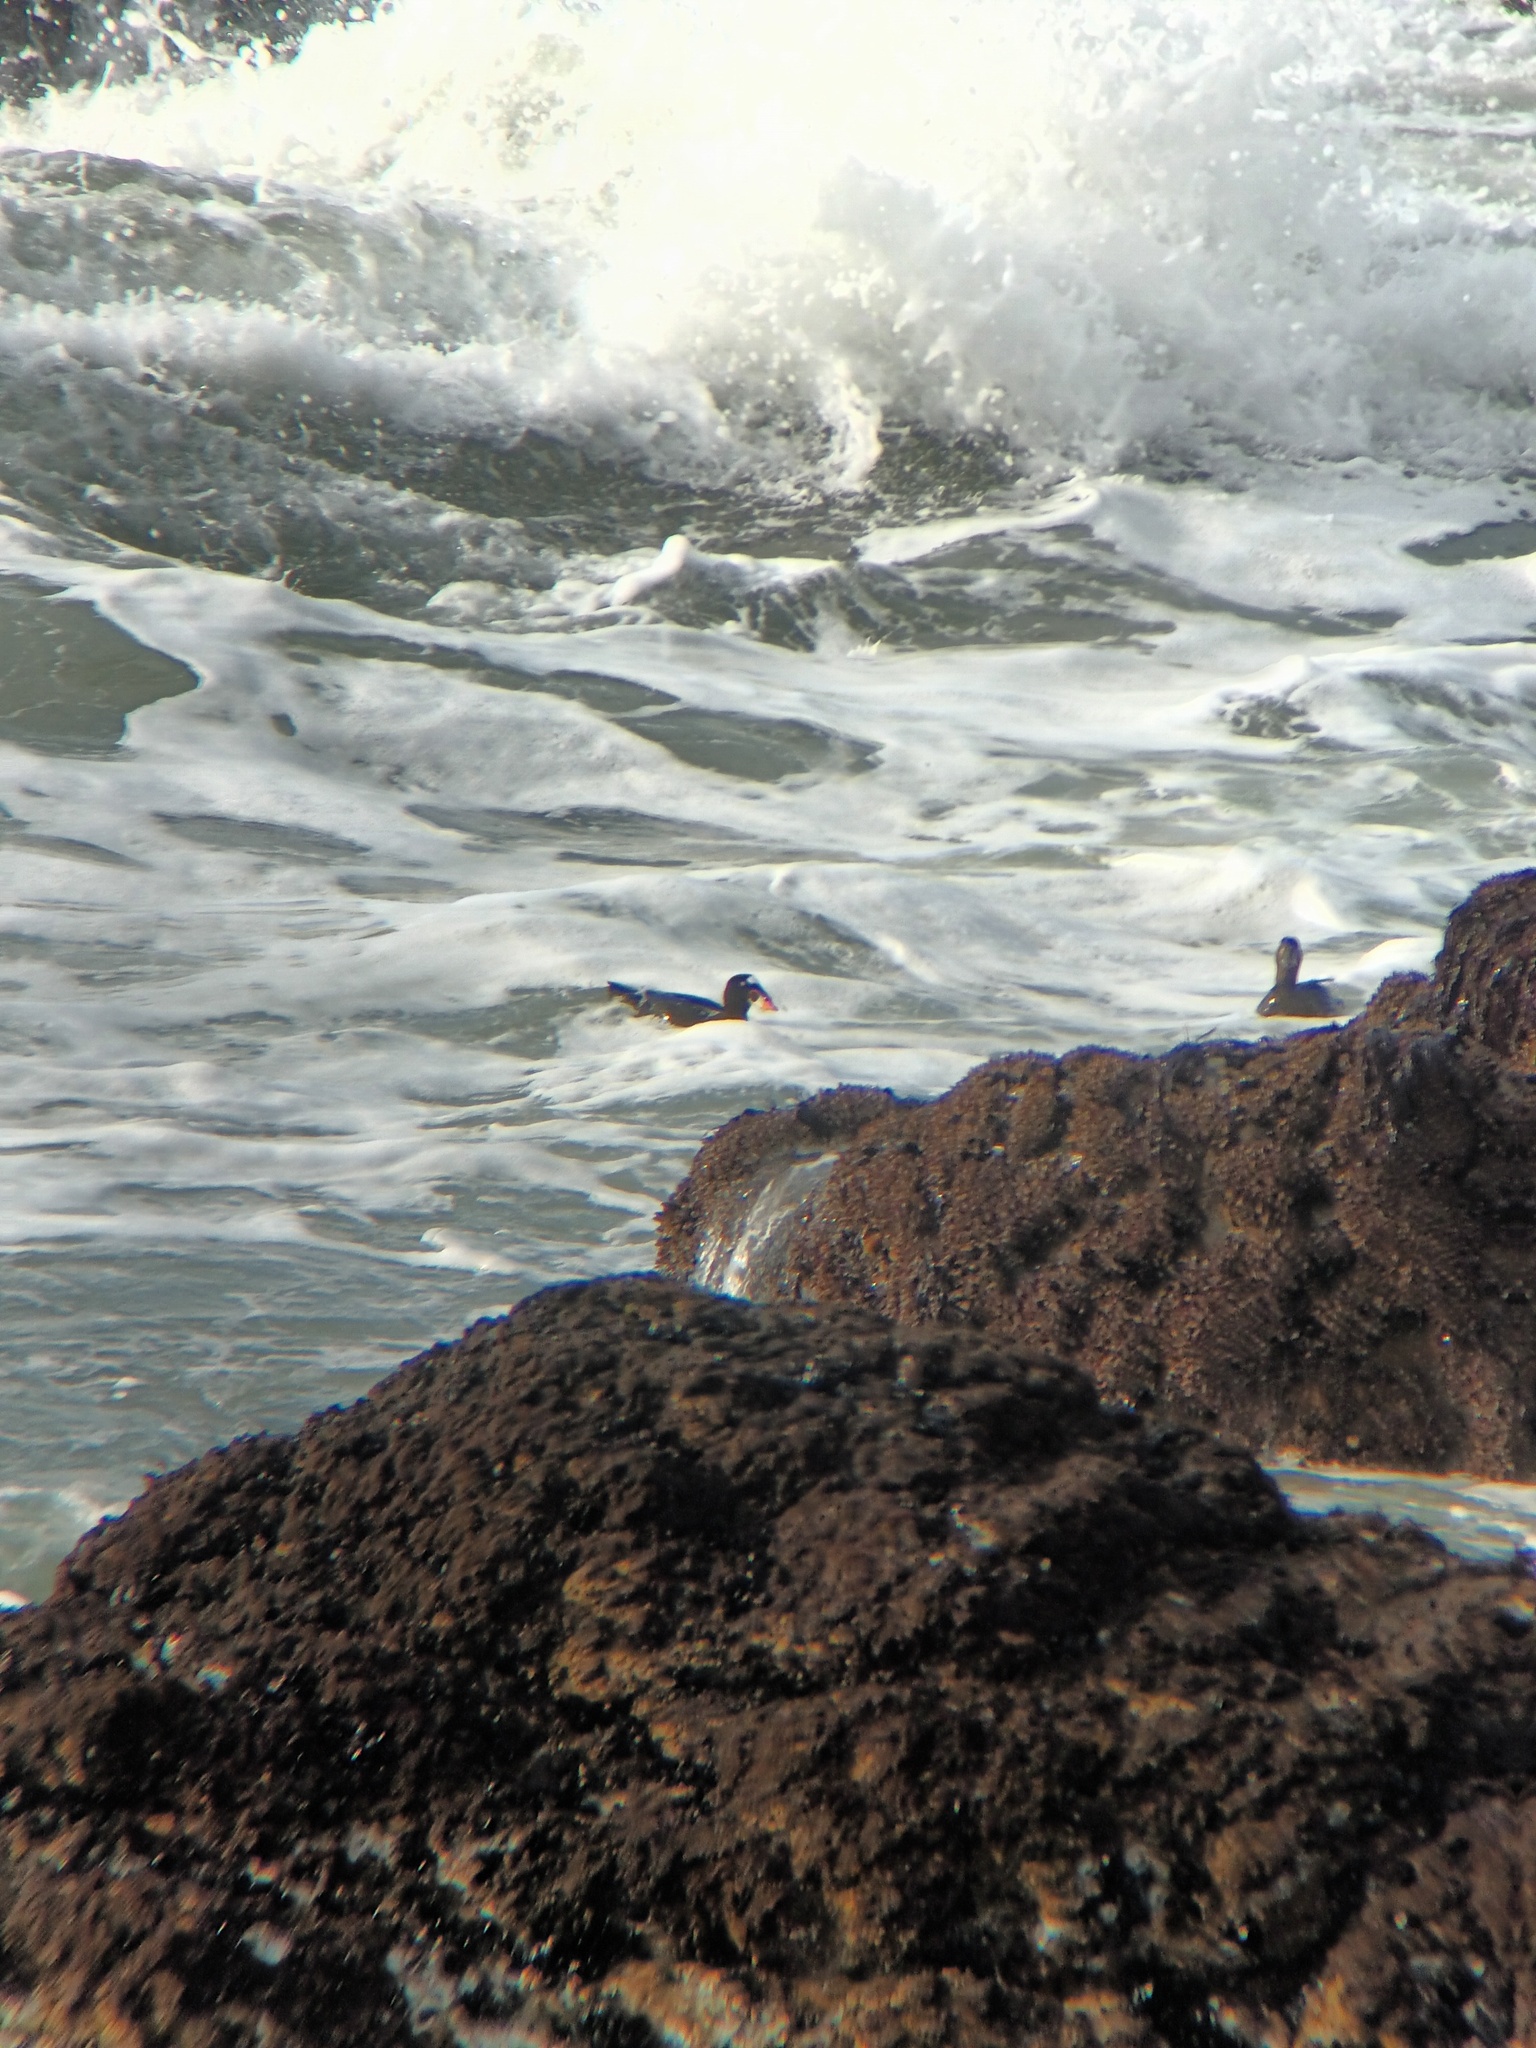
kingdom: Animalia
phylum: Chordata
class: Aves
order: Anseriformes
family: Anatidae
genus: Melanitta
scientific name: Melanitta perspicillata
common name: Surf scoter
